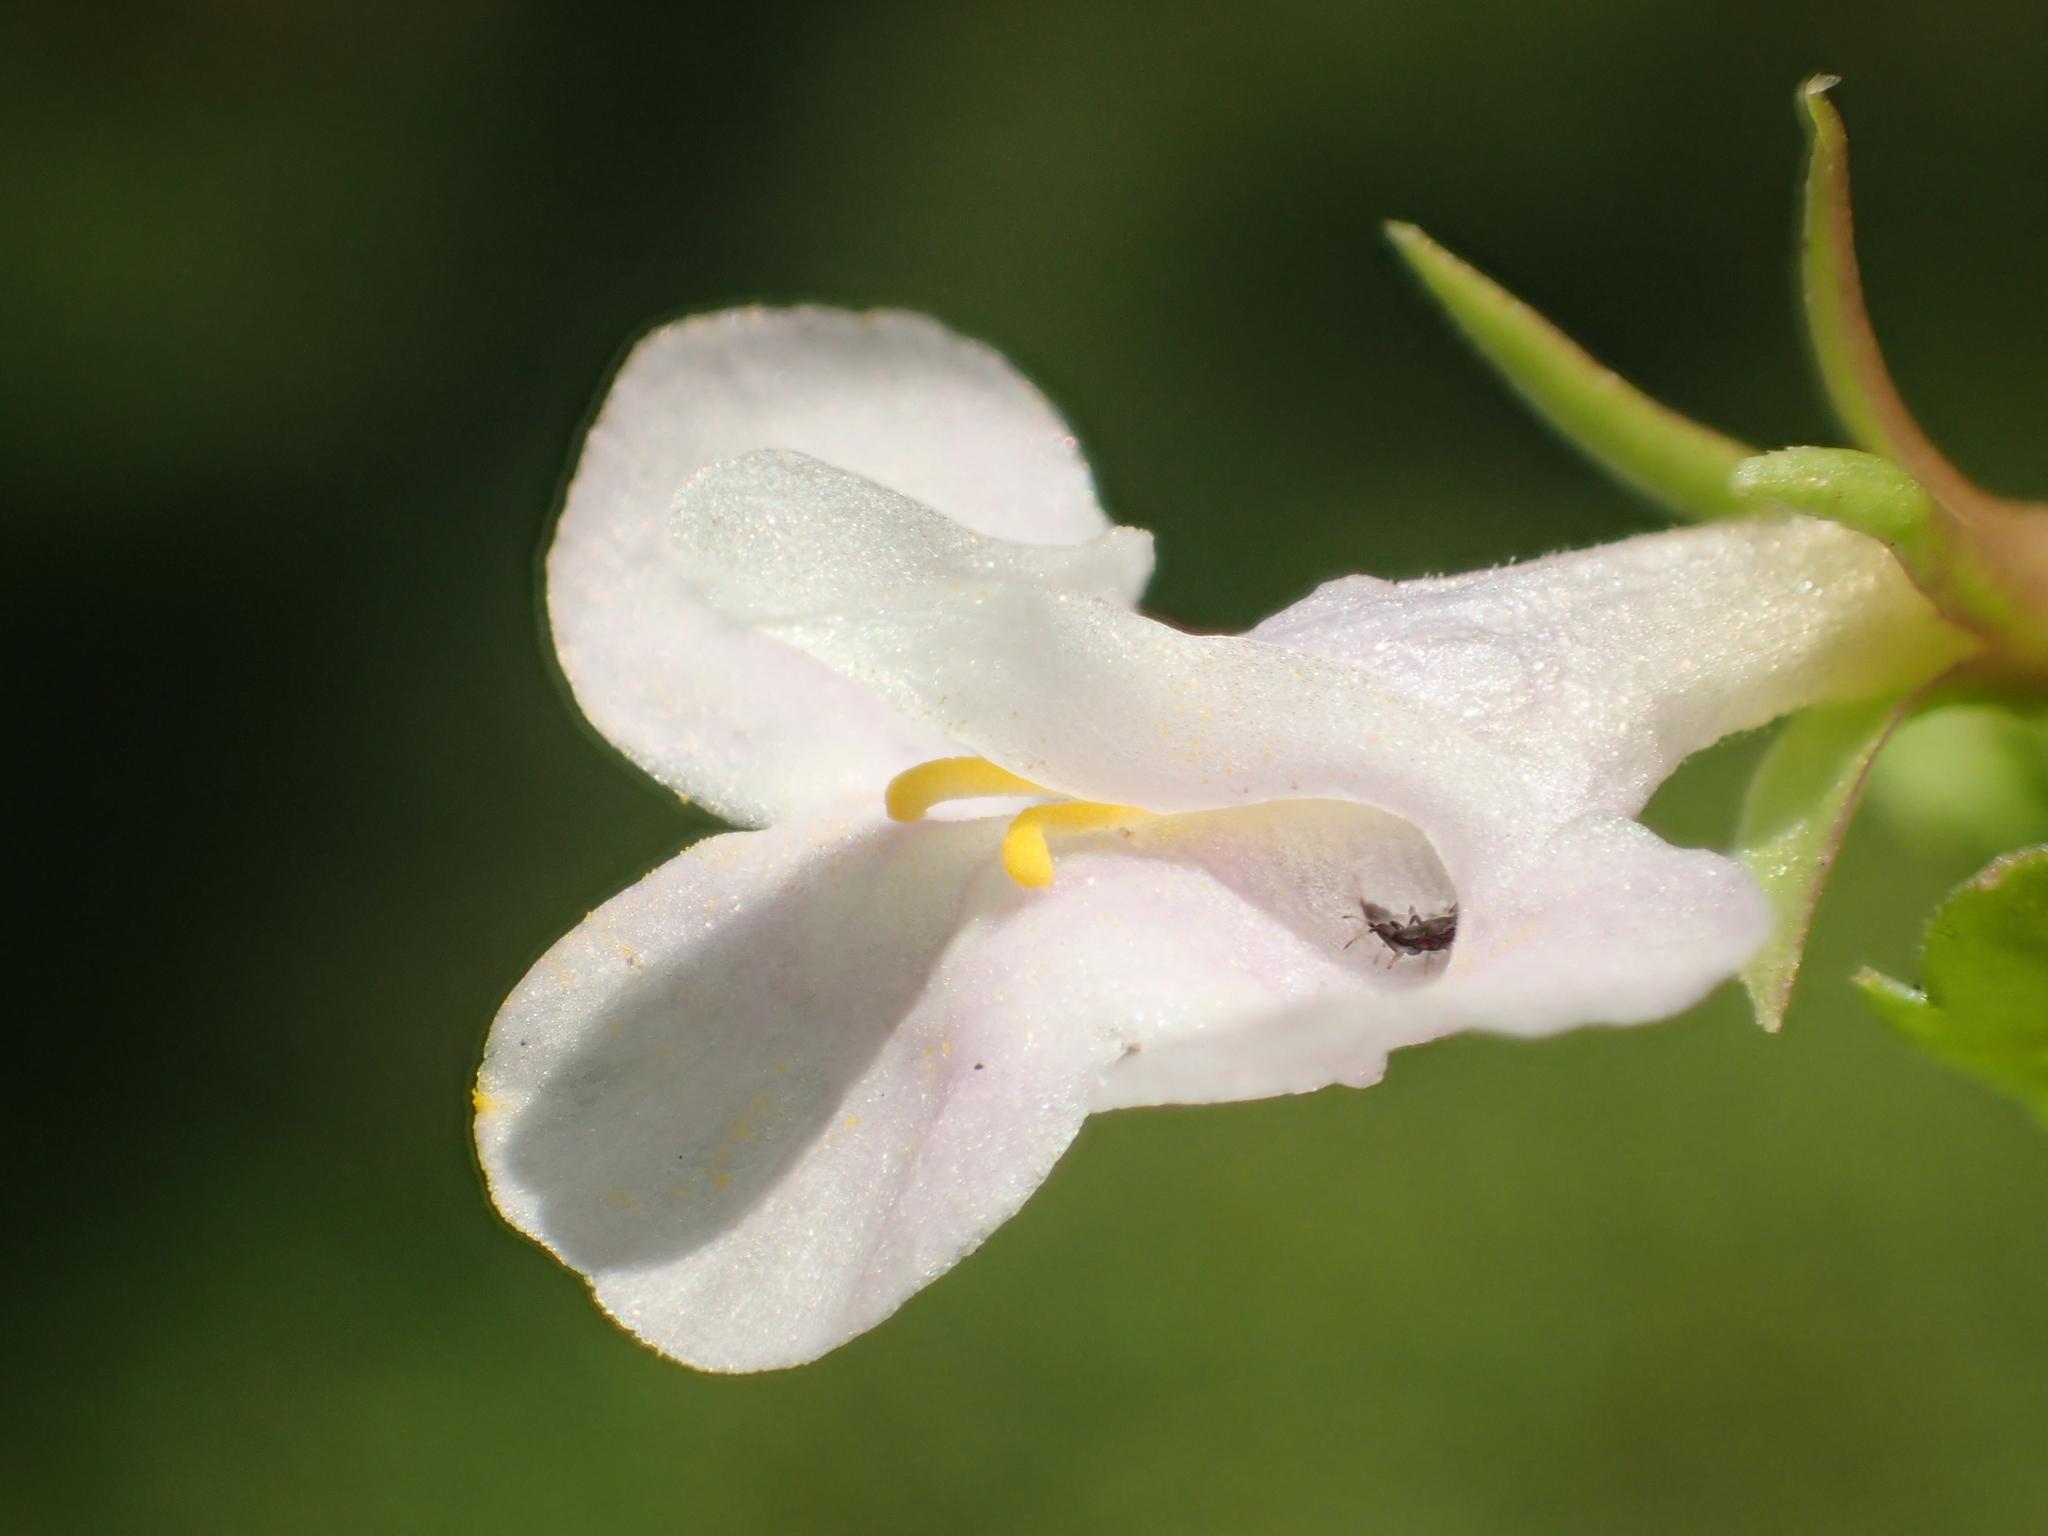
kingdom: Plantae
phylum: Tracheophyta
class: Magnoliopsida
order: Lamiales
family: Linderniaceae
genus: Bonnaya
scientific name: Bonnaya antipoda
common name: Sparrow false pimpernel
